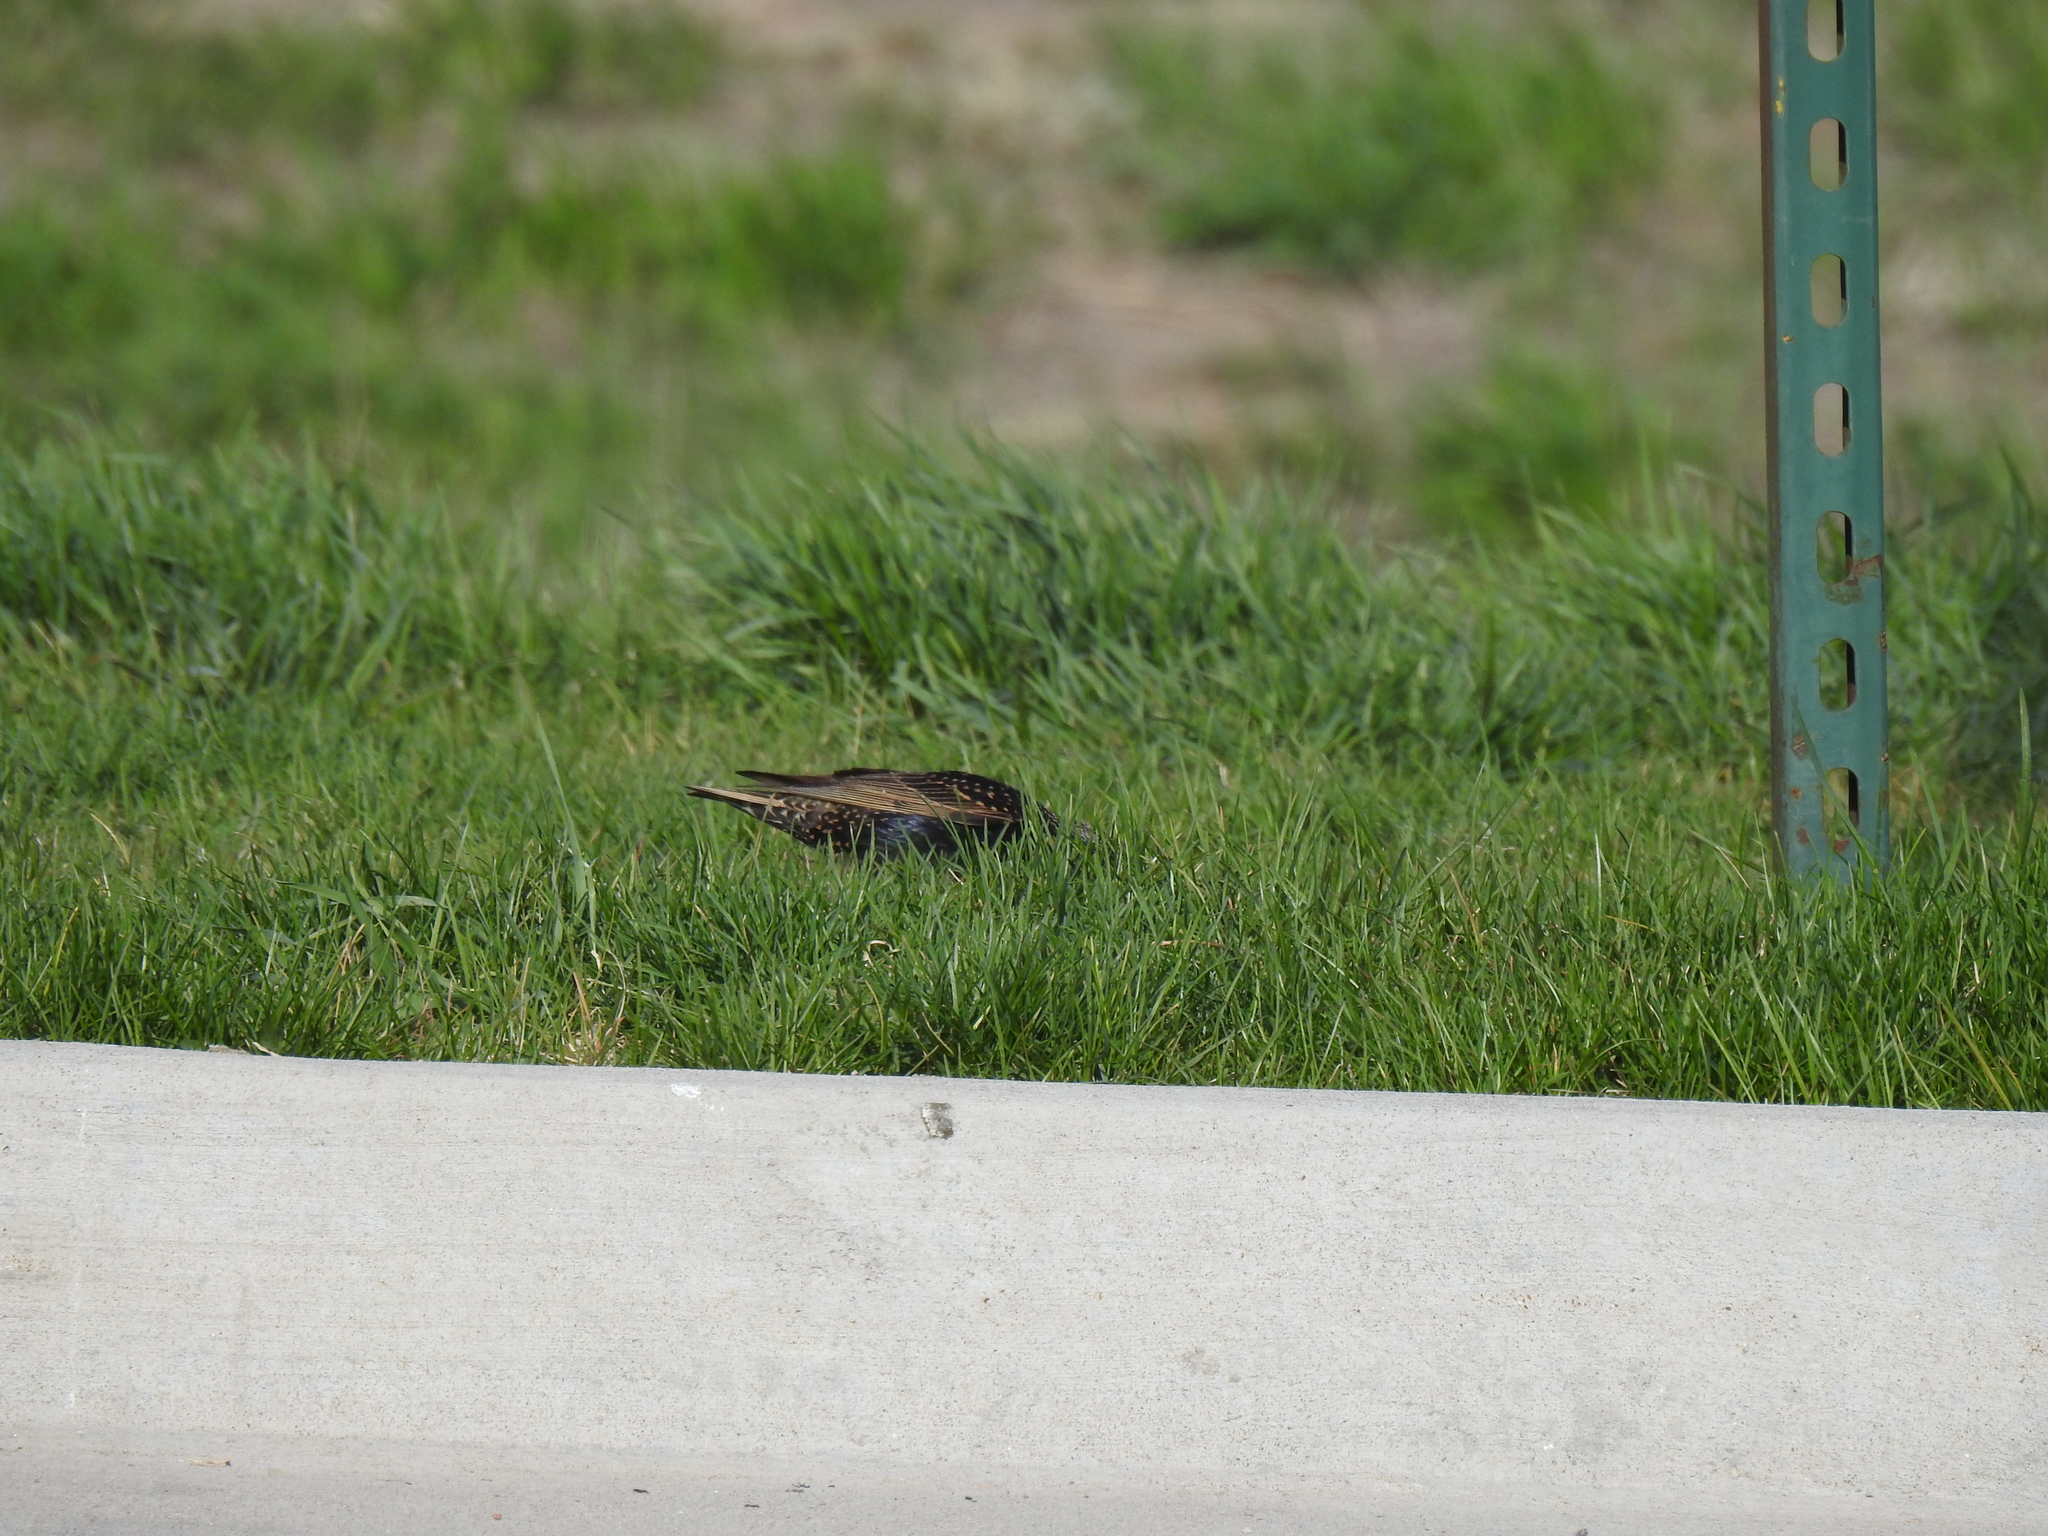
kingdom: Animalia
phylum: Chordata
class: Aves
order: Passeriformes
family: Sturnidae
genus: Sturnus
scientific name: Sturnus vulgaris
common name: Common starling
